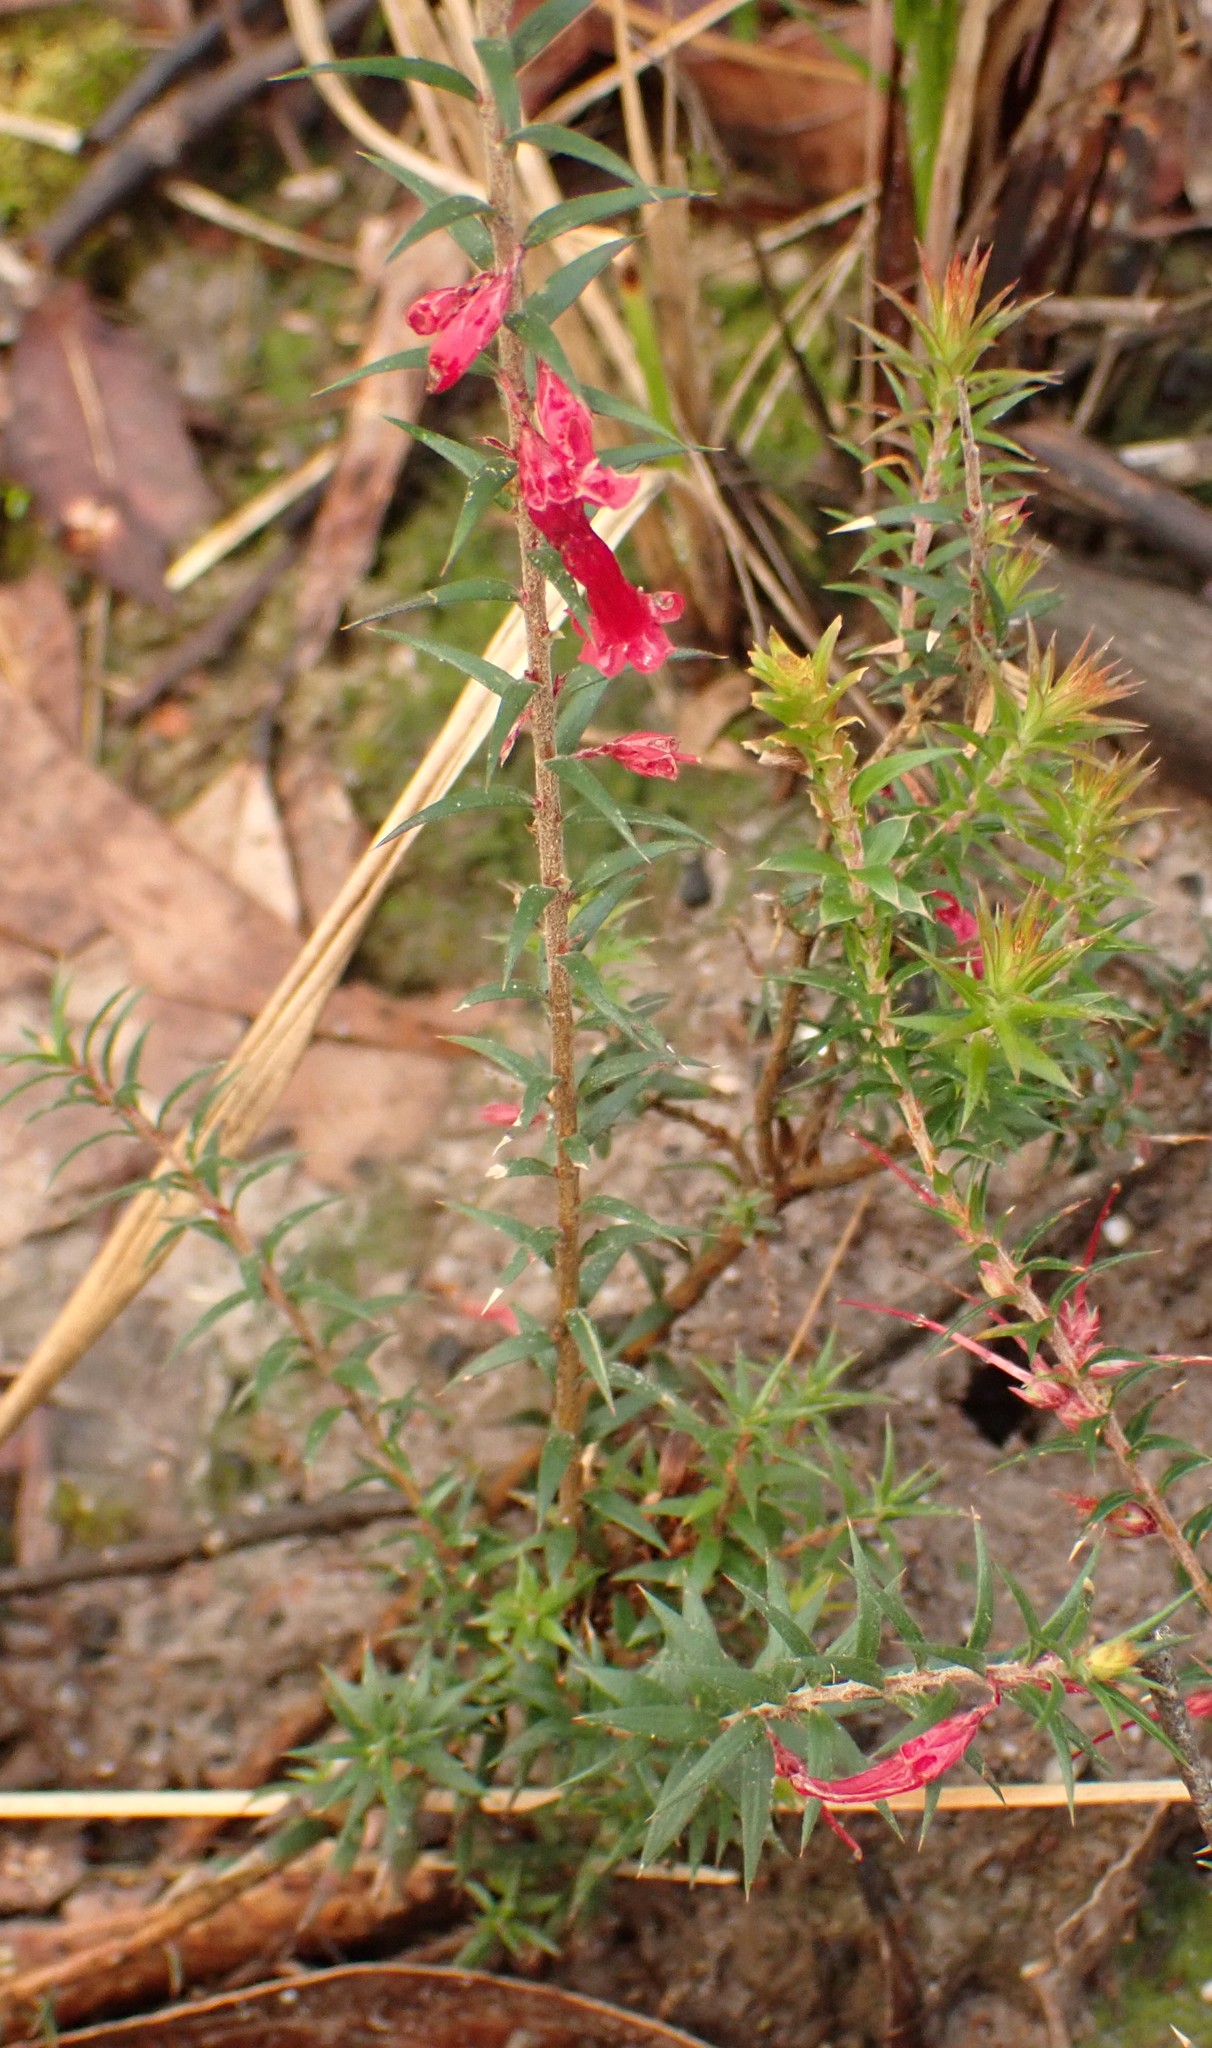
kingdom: Plantae
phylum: Tracheophyta
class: Magnoliopsida
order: Ericales
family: Ericaceae
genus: Epacris
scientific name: Epacris impressa
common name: Common-heath
